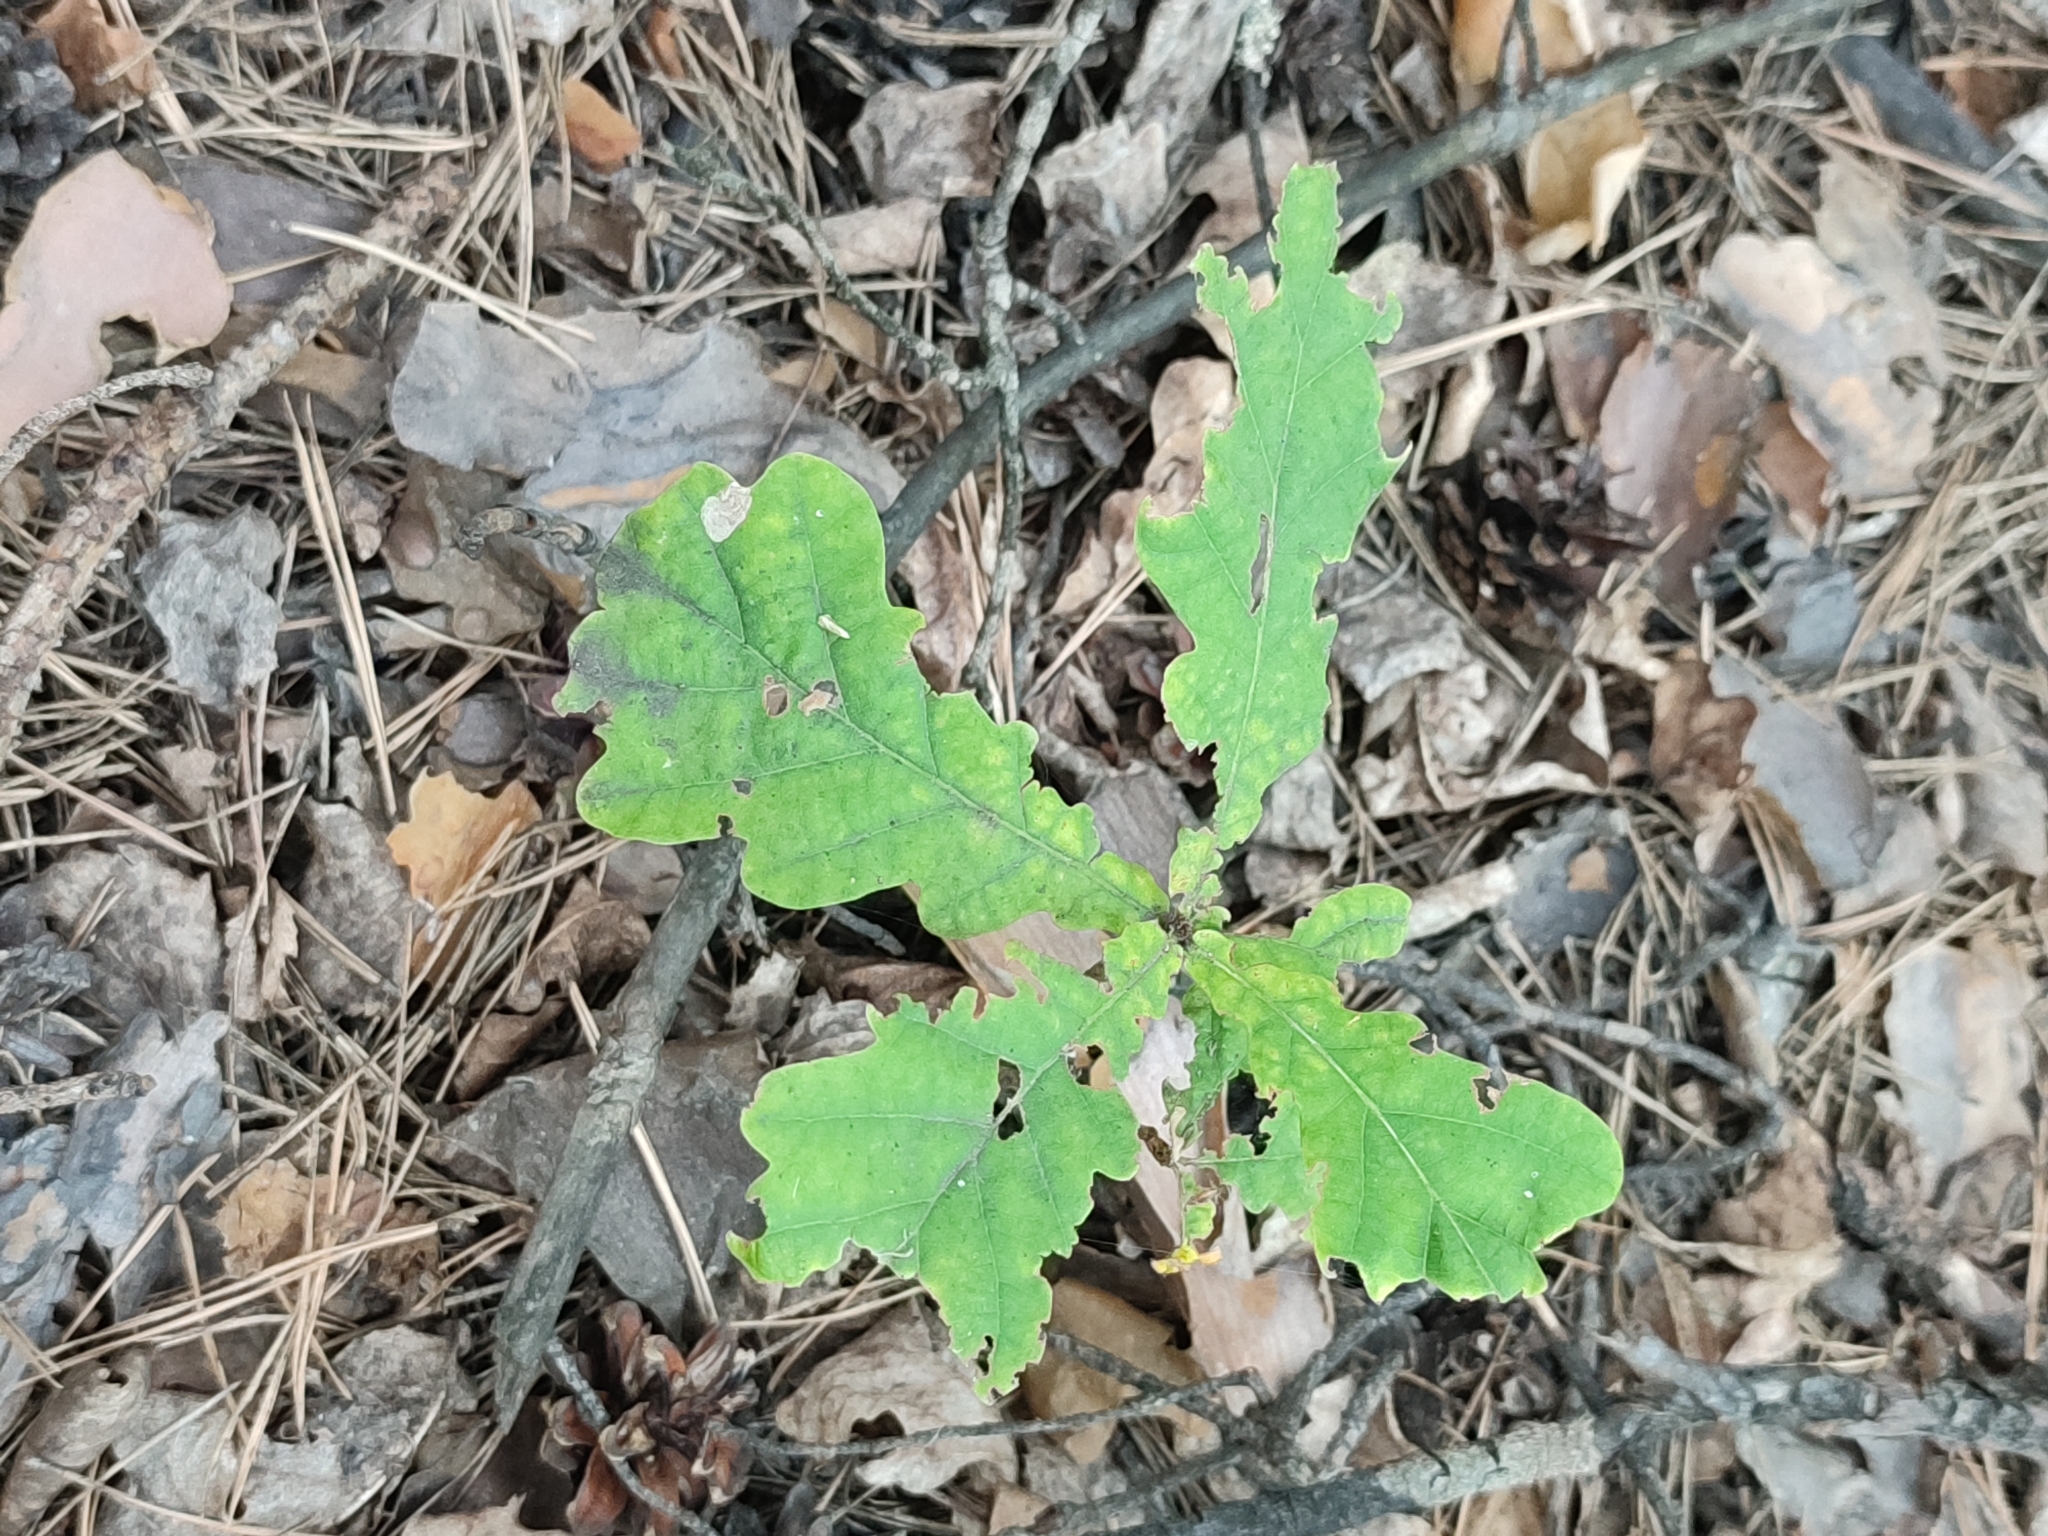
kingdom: Plantae
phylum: Tracheophyta
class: Magnoliopsida
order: Fagales
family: Fagaceae
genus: Quercus
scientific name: Quercus robur
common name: Pedunculate oak
